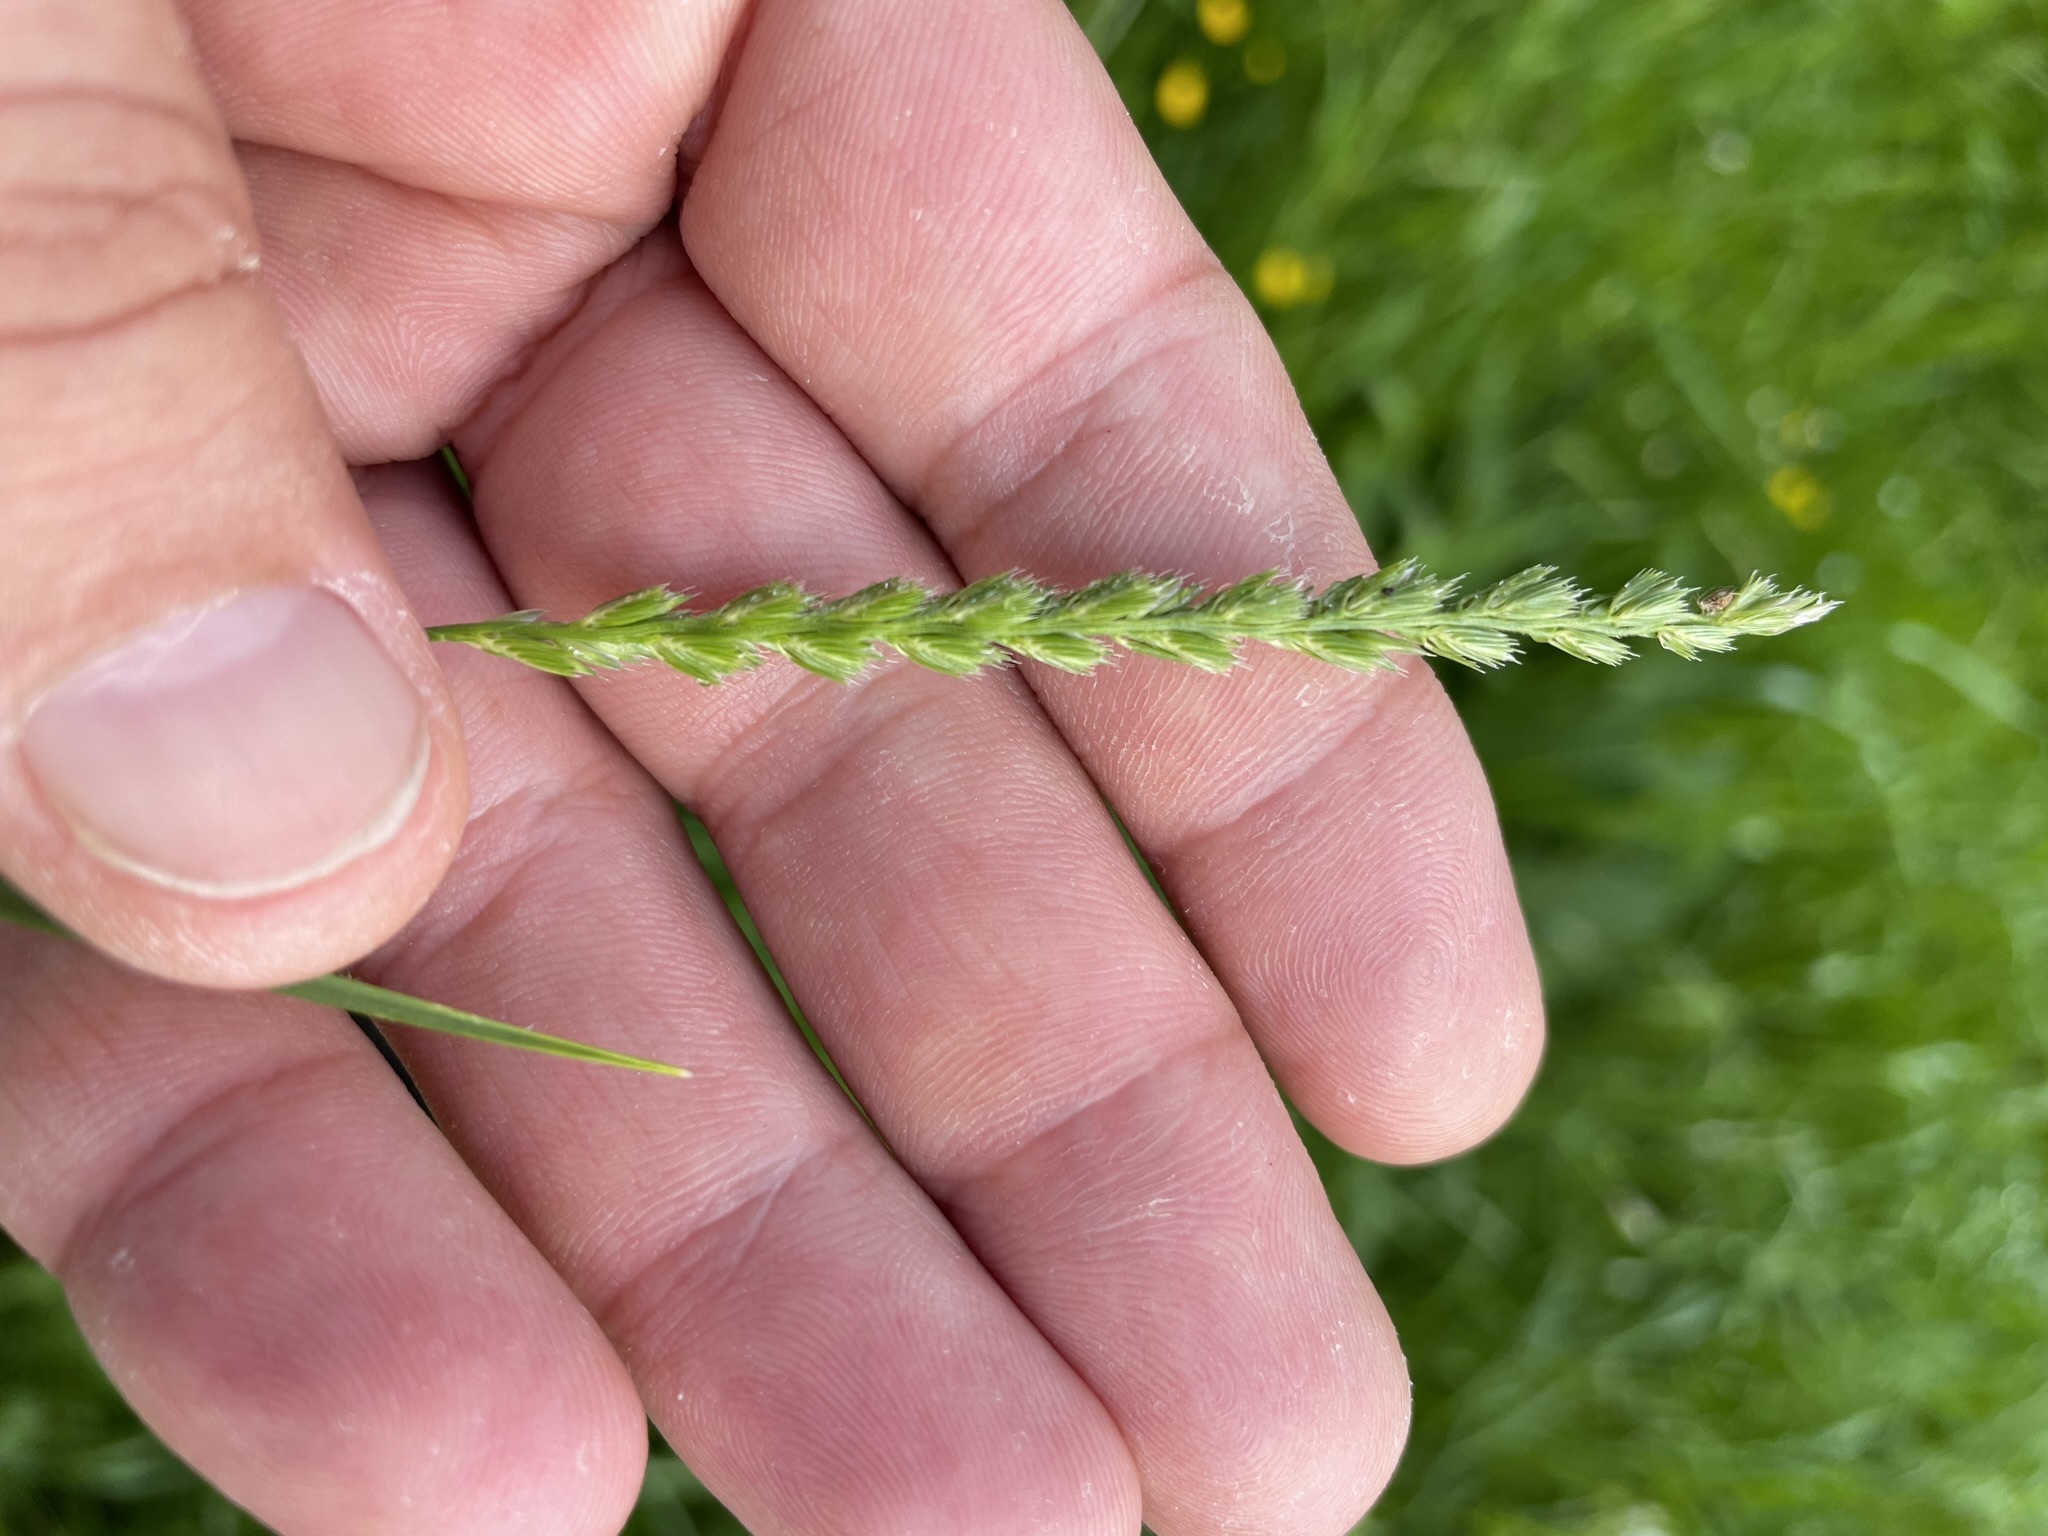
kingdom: Plantae
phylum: Tracheophyta
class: Liliopsida
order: Poales
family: Poaceae
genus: Cynosurus
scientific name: Cynosurus cristatus
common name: Crested dog's-tail
